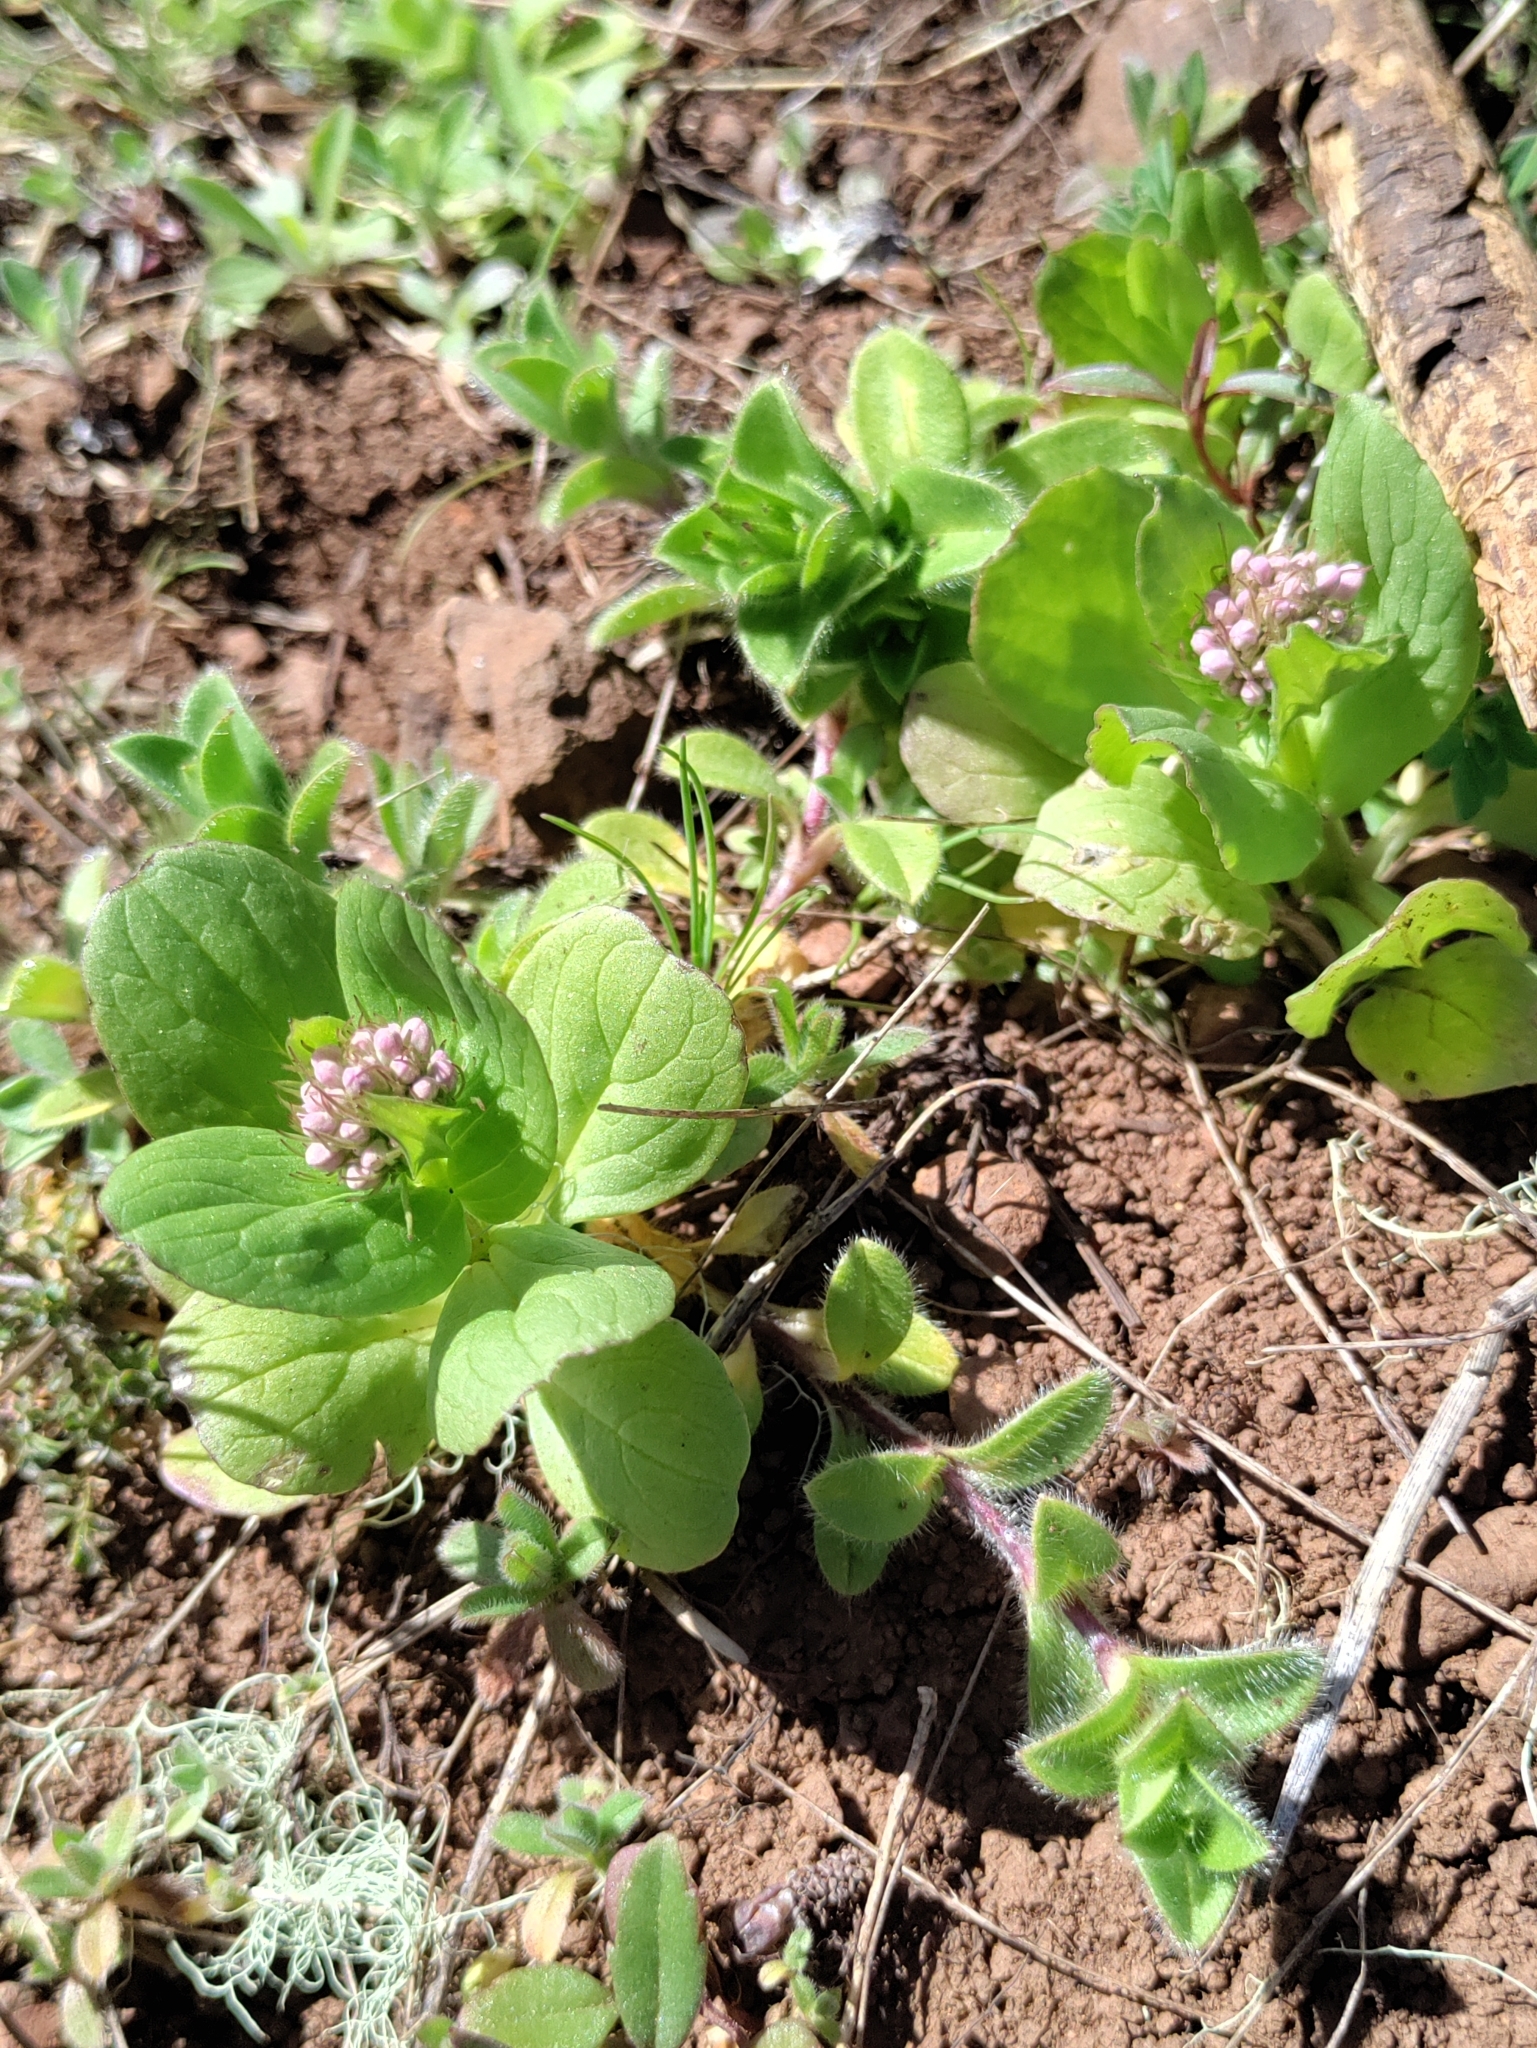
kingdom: Plantae
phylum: Tracheophyta
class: Magnoliopsida
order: Dipsacales
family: Caprifoliaceae
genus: Plectritis
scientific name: Plectritis congesta
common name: Pink plectritis
